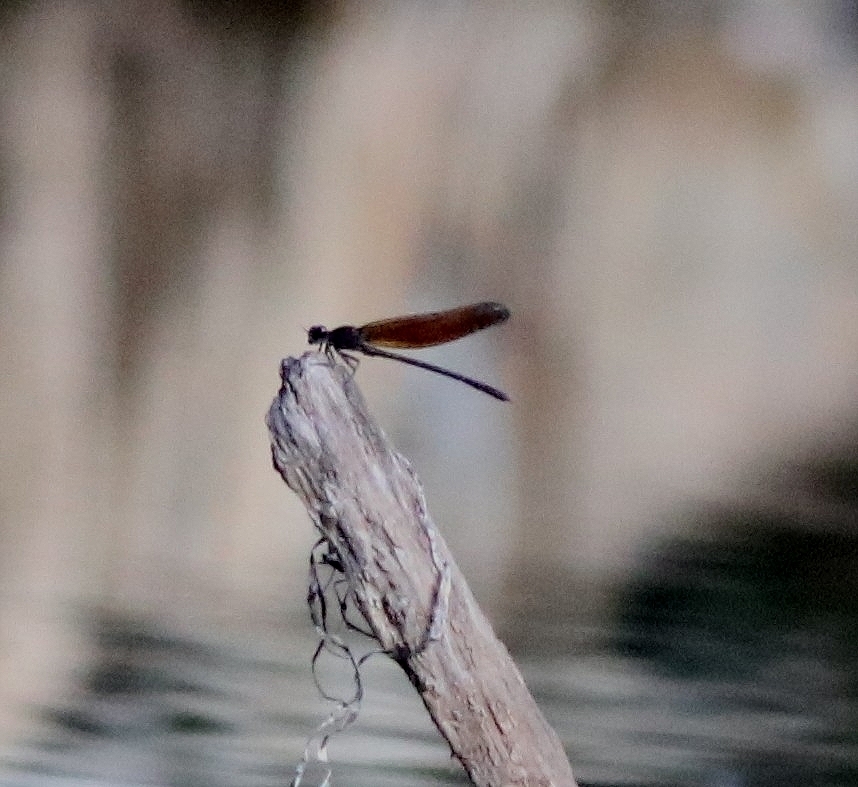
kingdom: Animalia
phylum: Arthropoda
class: Insecta
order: Odonata
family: Euphaeidae
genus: Dysphaea
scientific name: Dysphaea ethela
